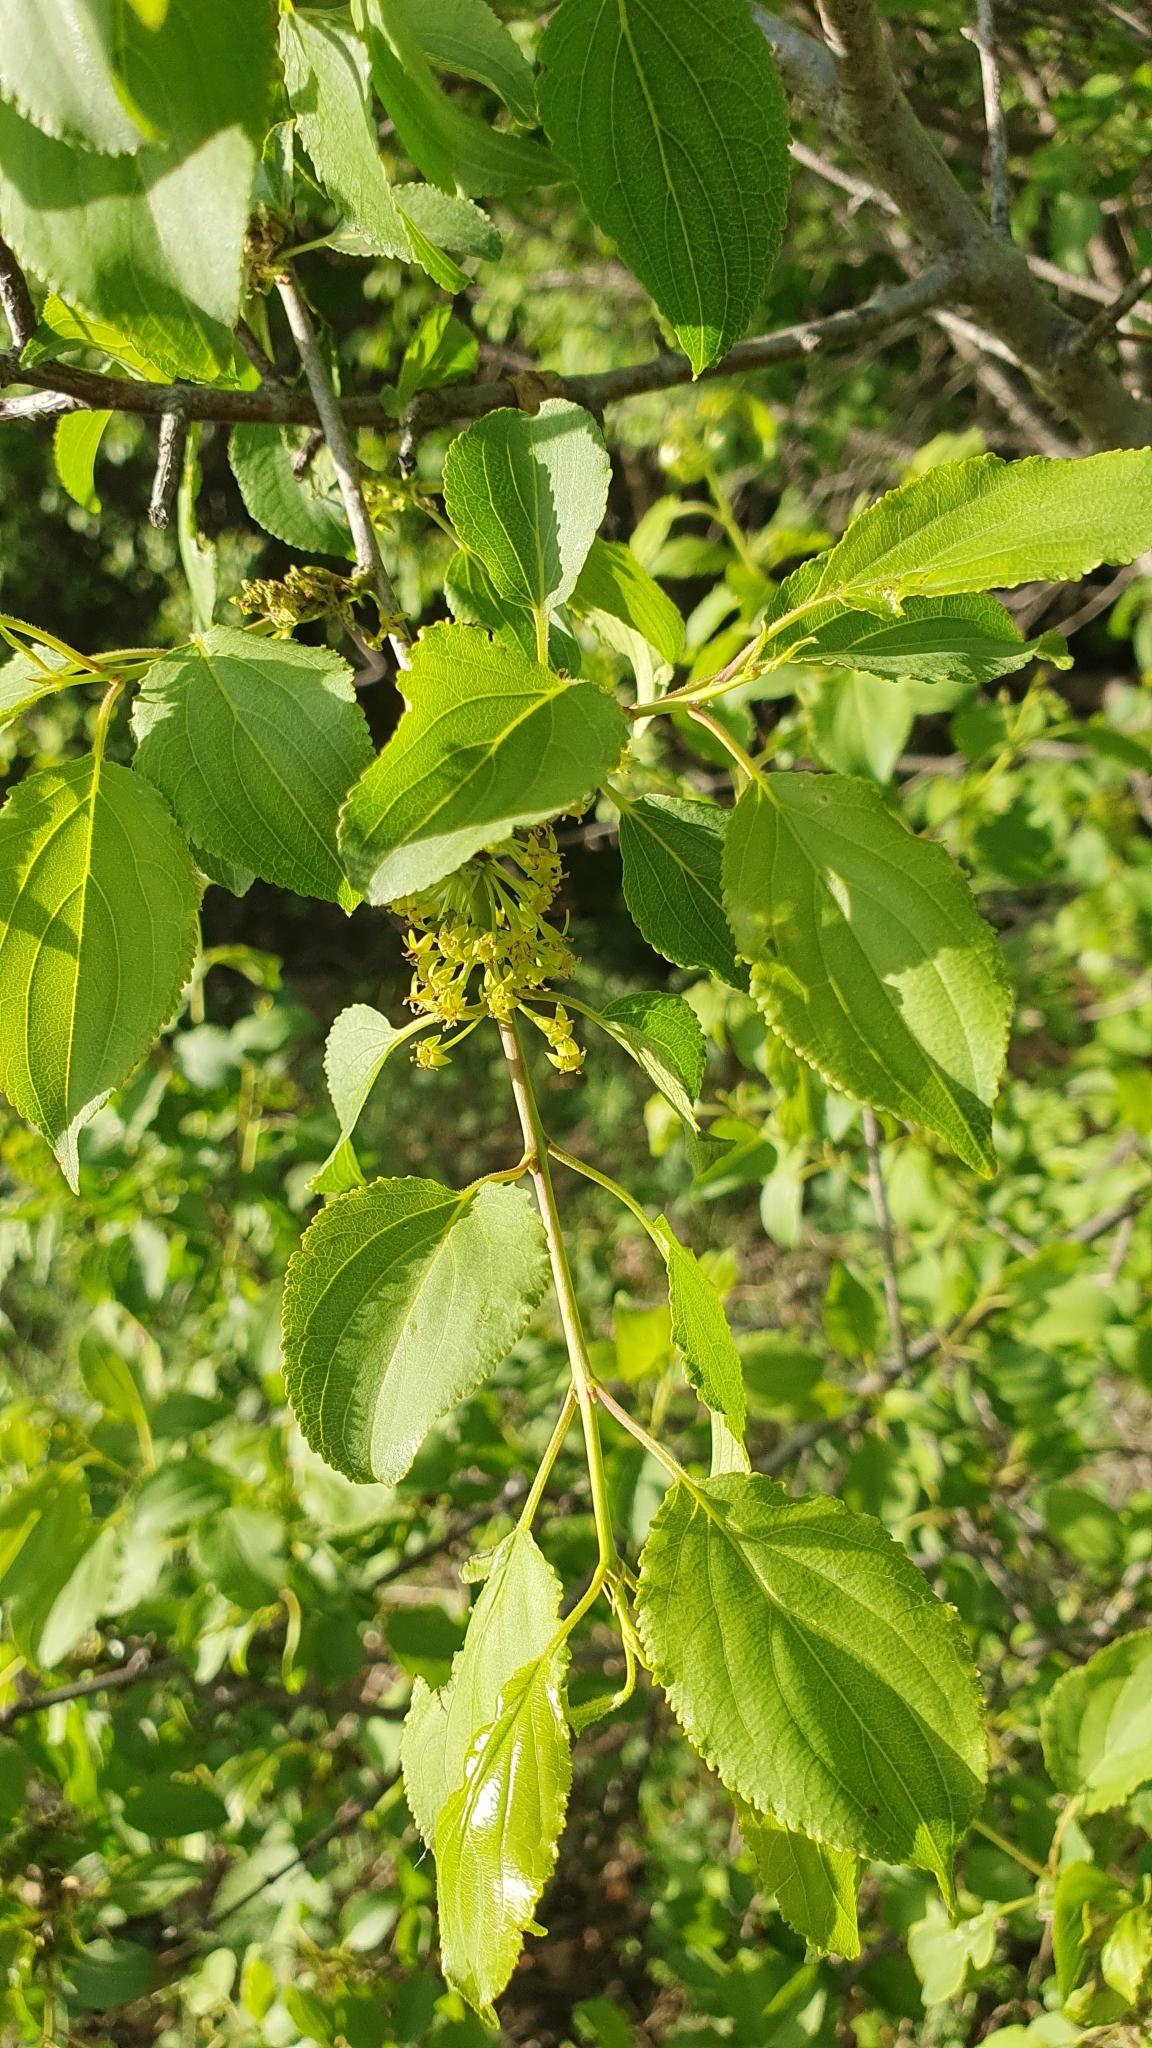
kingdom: Plantae
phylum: Tracheophyta
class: Magnoliopsida
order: Rosales
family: Rhamnaceae
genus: Rhamnus
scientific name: Rhamnus cathartica
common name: Common buckthorn
